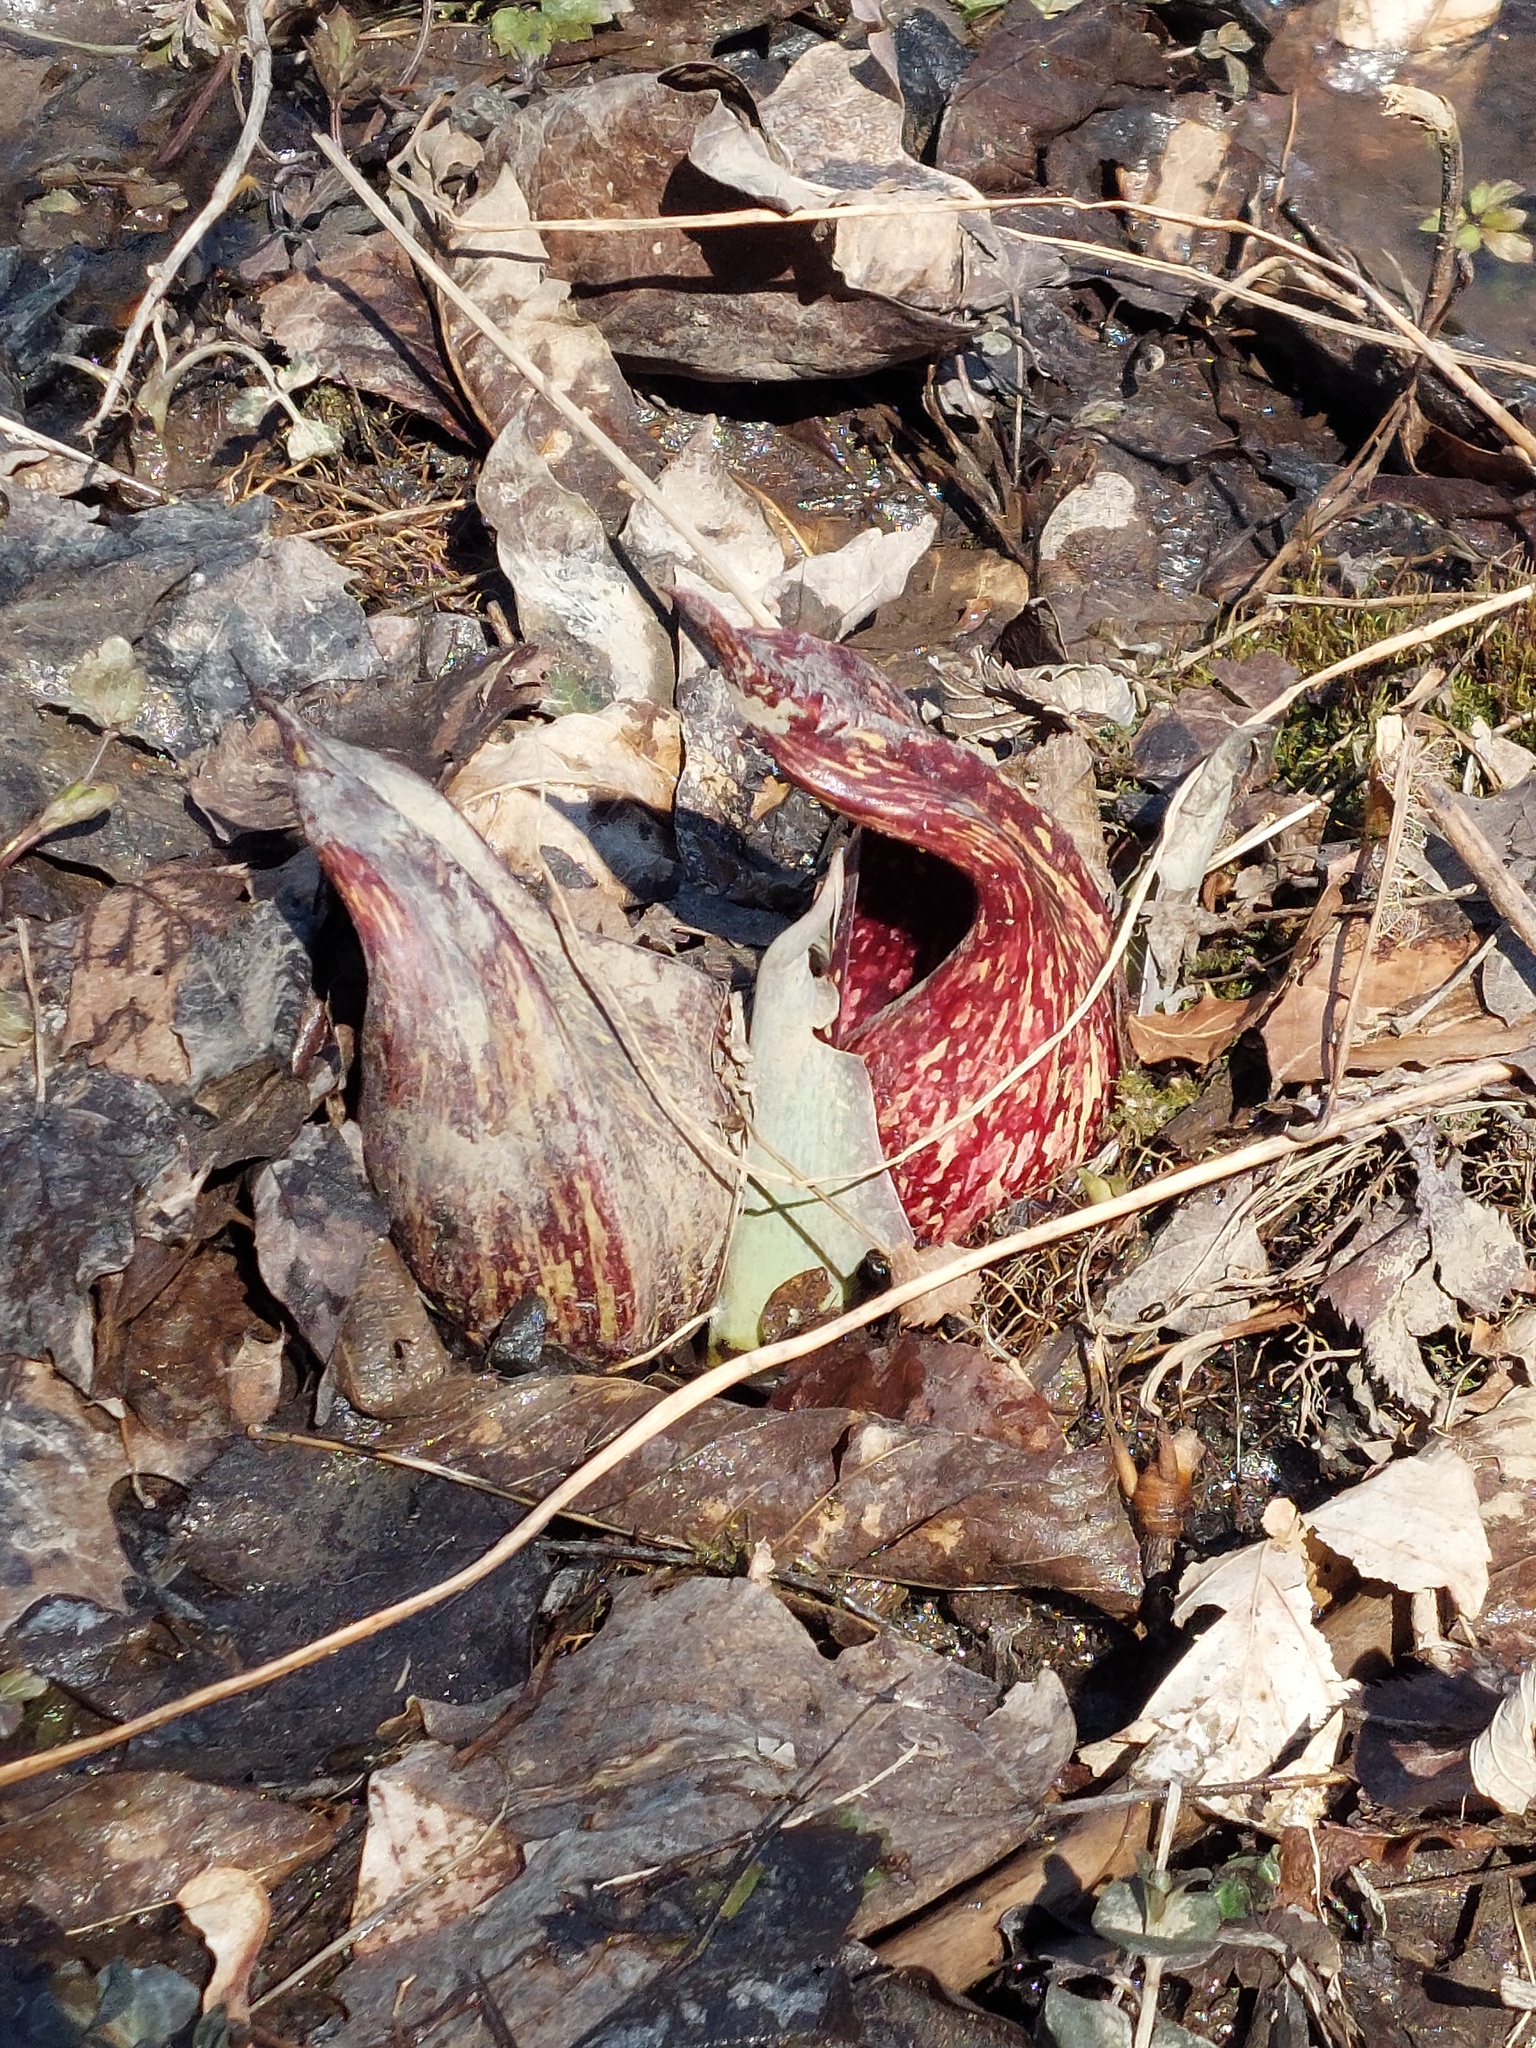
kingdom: Plantae
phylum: Tracheophyta
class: Liliopsida
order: Alismatales
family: Araceae
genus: Symplocarpus
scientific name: Symplocarpus foetidus
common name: Eastern skunk cabbage
